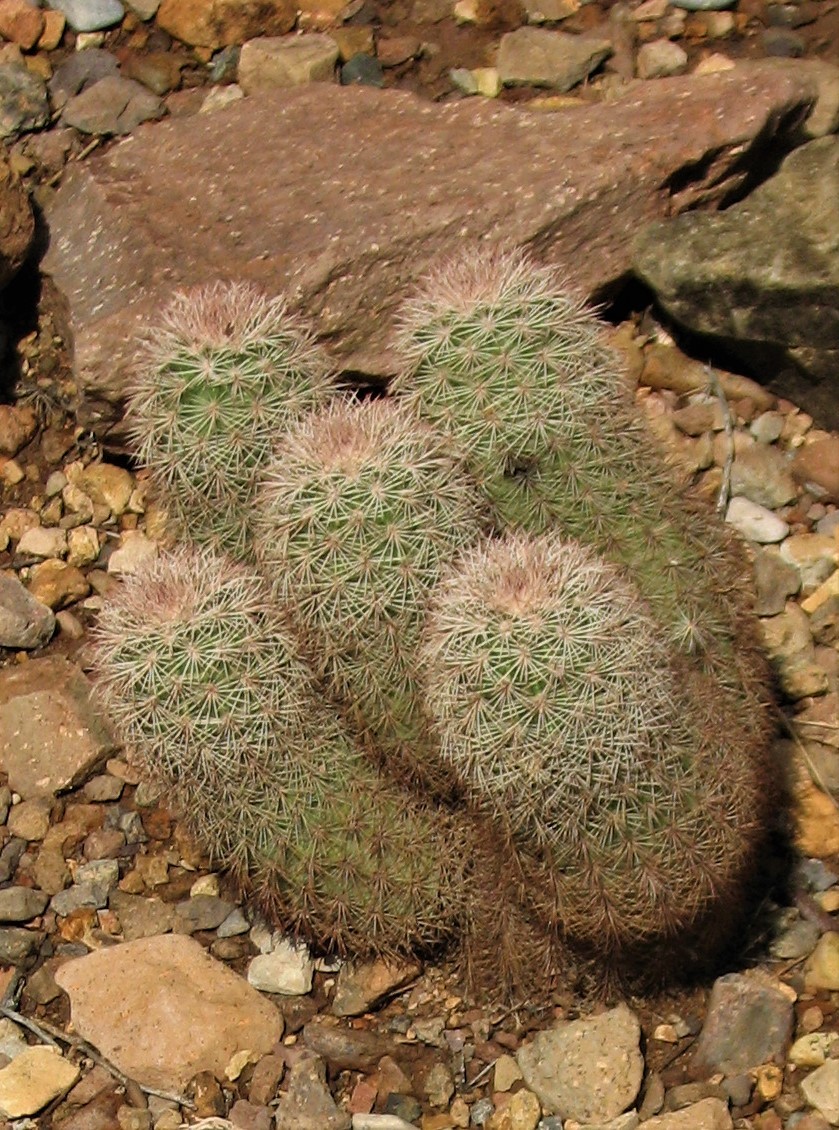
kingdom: Plantae
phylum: Tracheophyta
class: Magnoliopsida
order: Caryophyllales
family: Cactaceae
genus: Echinocereus
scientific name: Echinocereus dasyacanthus
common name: Spiny hedgehog cactus
